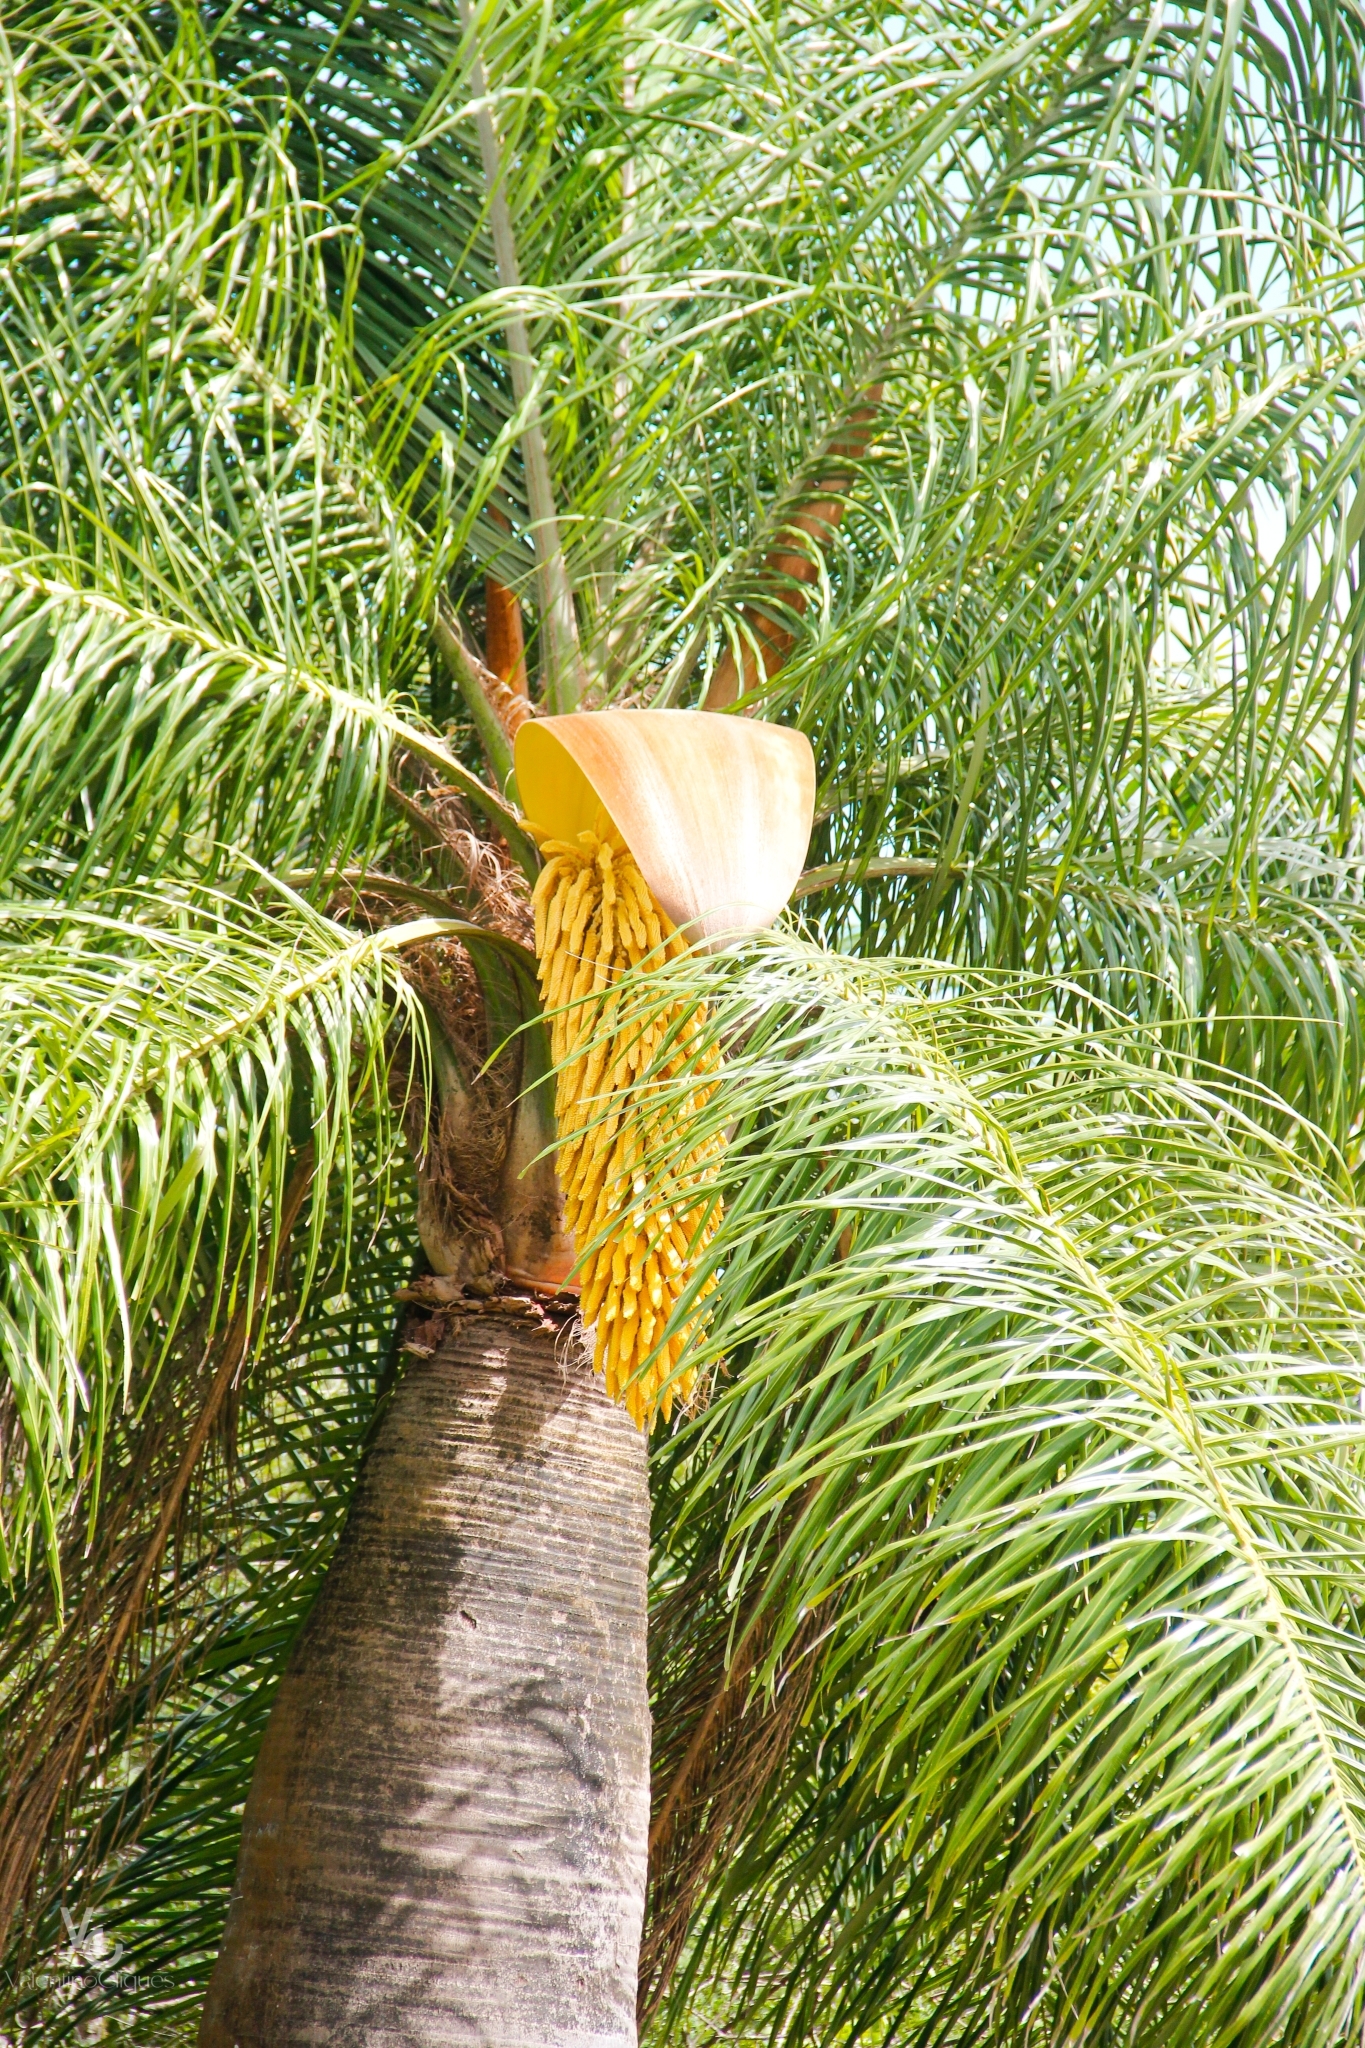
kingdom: Plantae
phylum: Tracheophyta
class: Liliopsida
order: Arecales
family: Arecaceae
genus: Acrocomia
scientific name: Acrocomia intumescens
